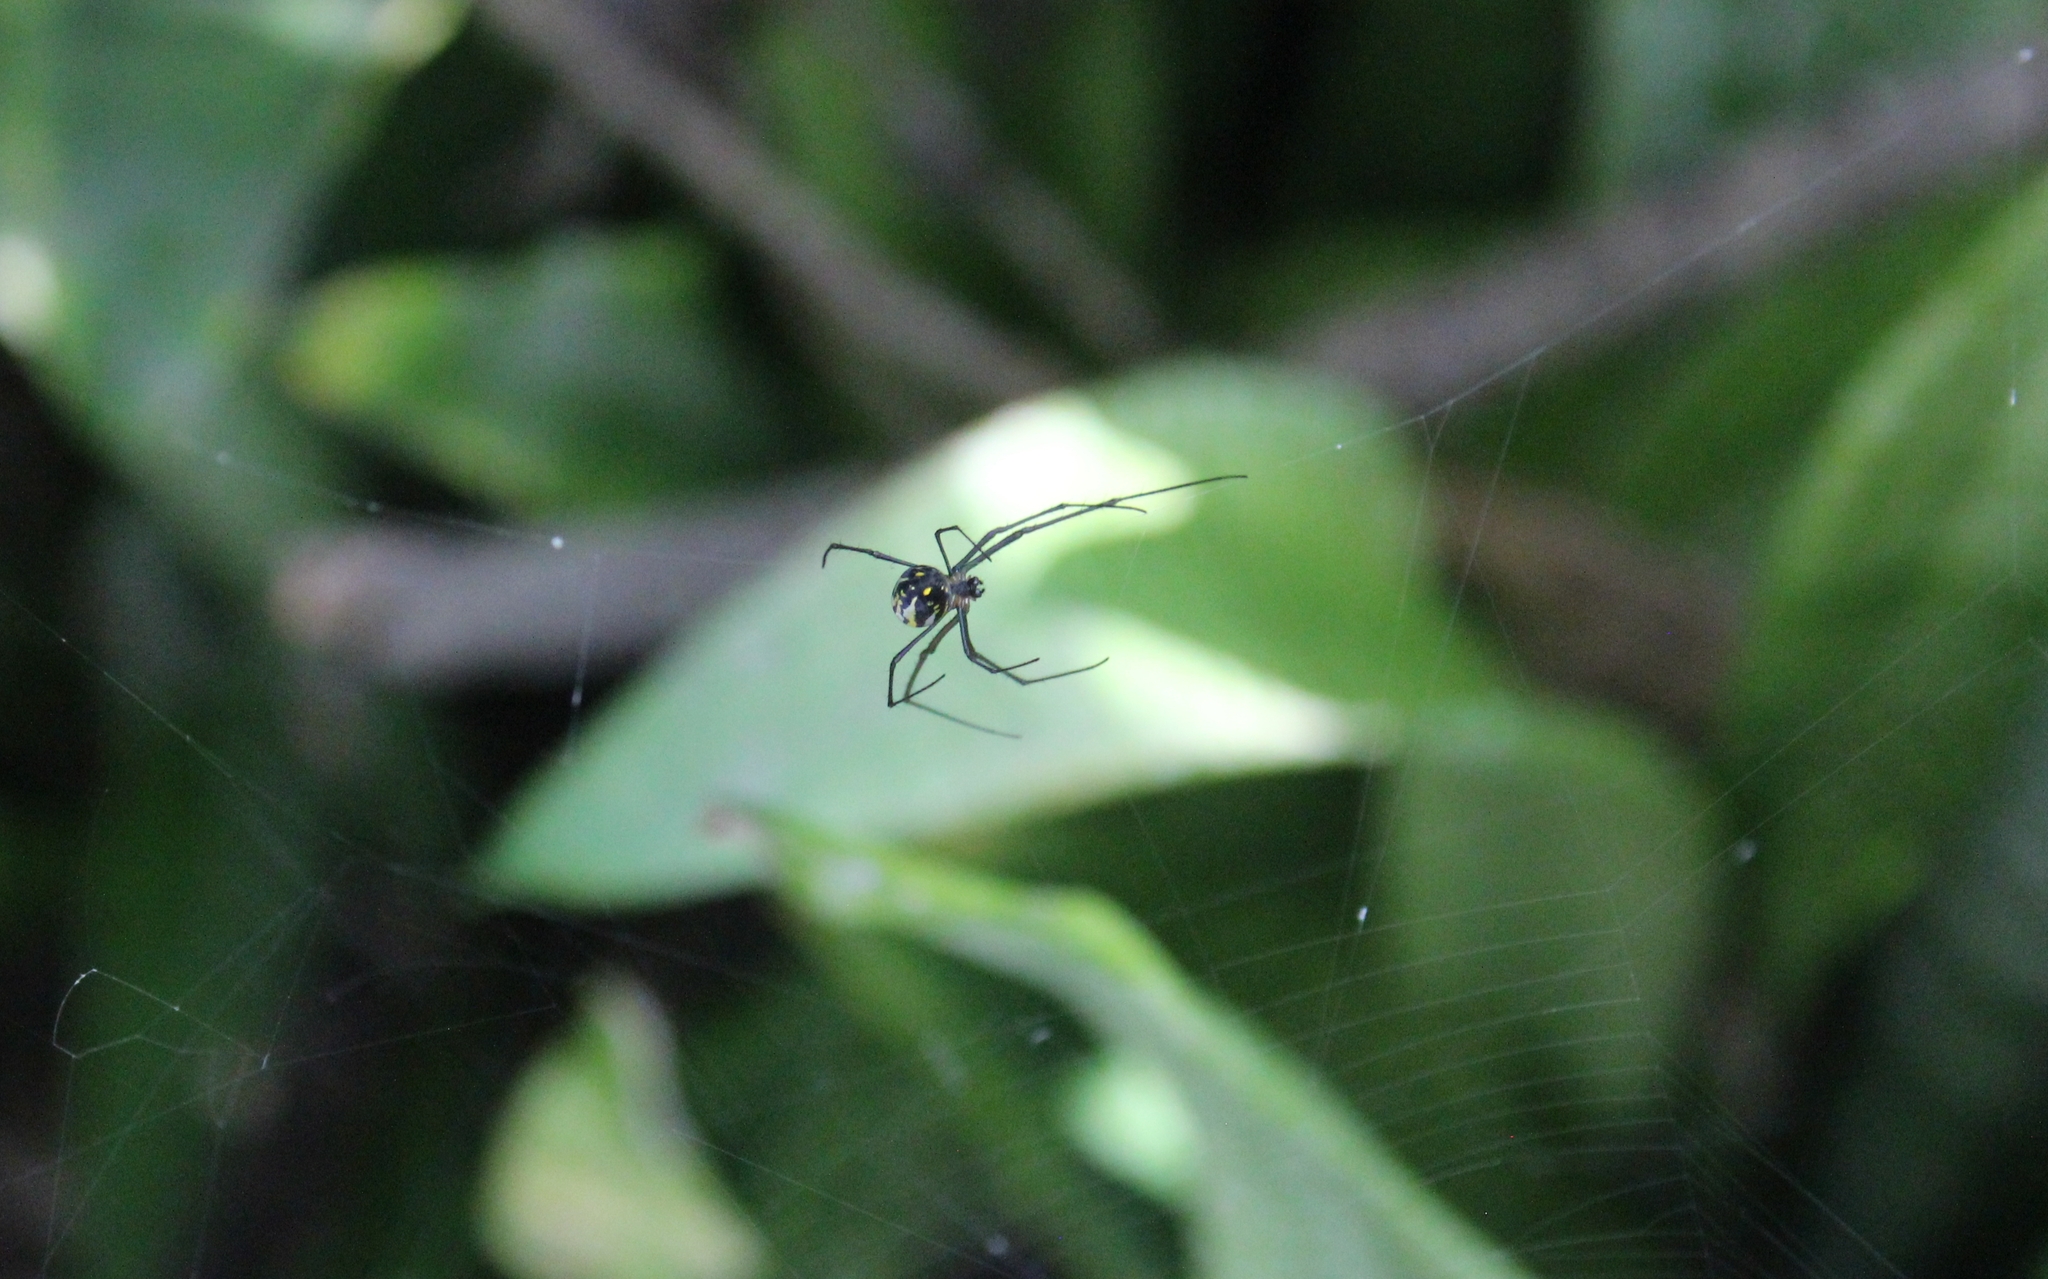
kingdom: Animalia
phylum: Arthropoda
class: Arachnida
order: Araneae
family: Tetragnathidae
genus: Leucauge
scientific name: Leucauge argyra
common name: Longjawed orb weavers
